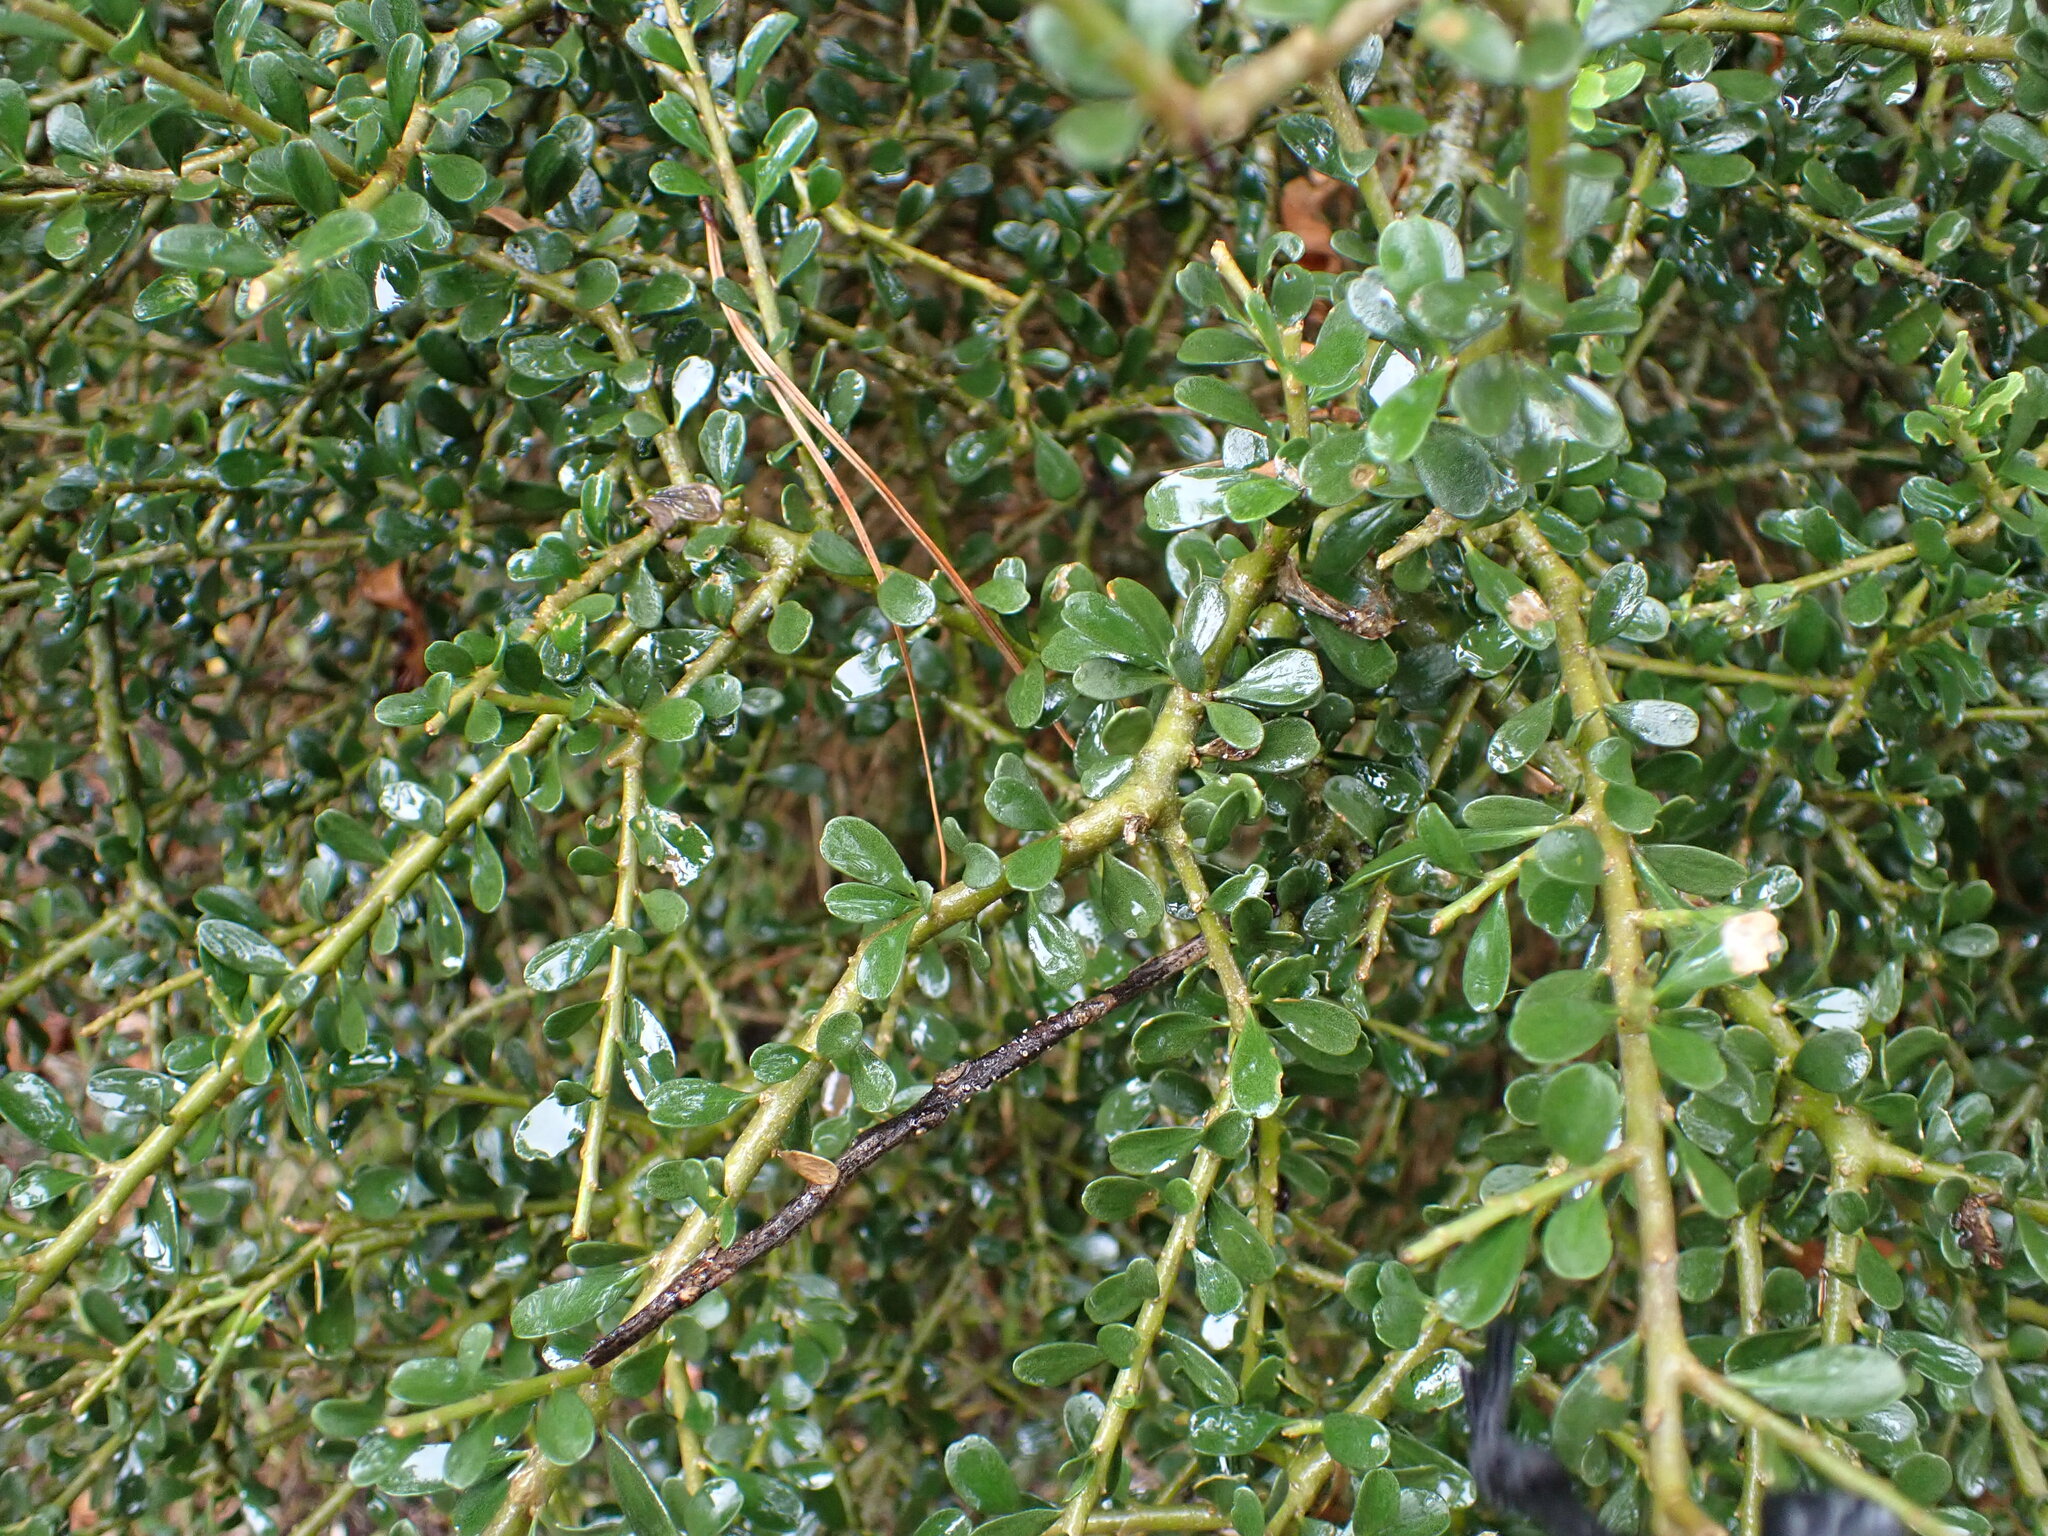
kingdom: Plantae
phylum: Tracheophyta
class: Magnoliopsida
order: Malpighiales
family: Violaceae
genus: Melicytus
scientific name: Melicytus crassifolius
